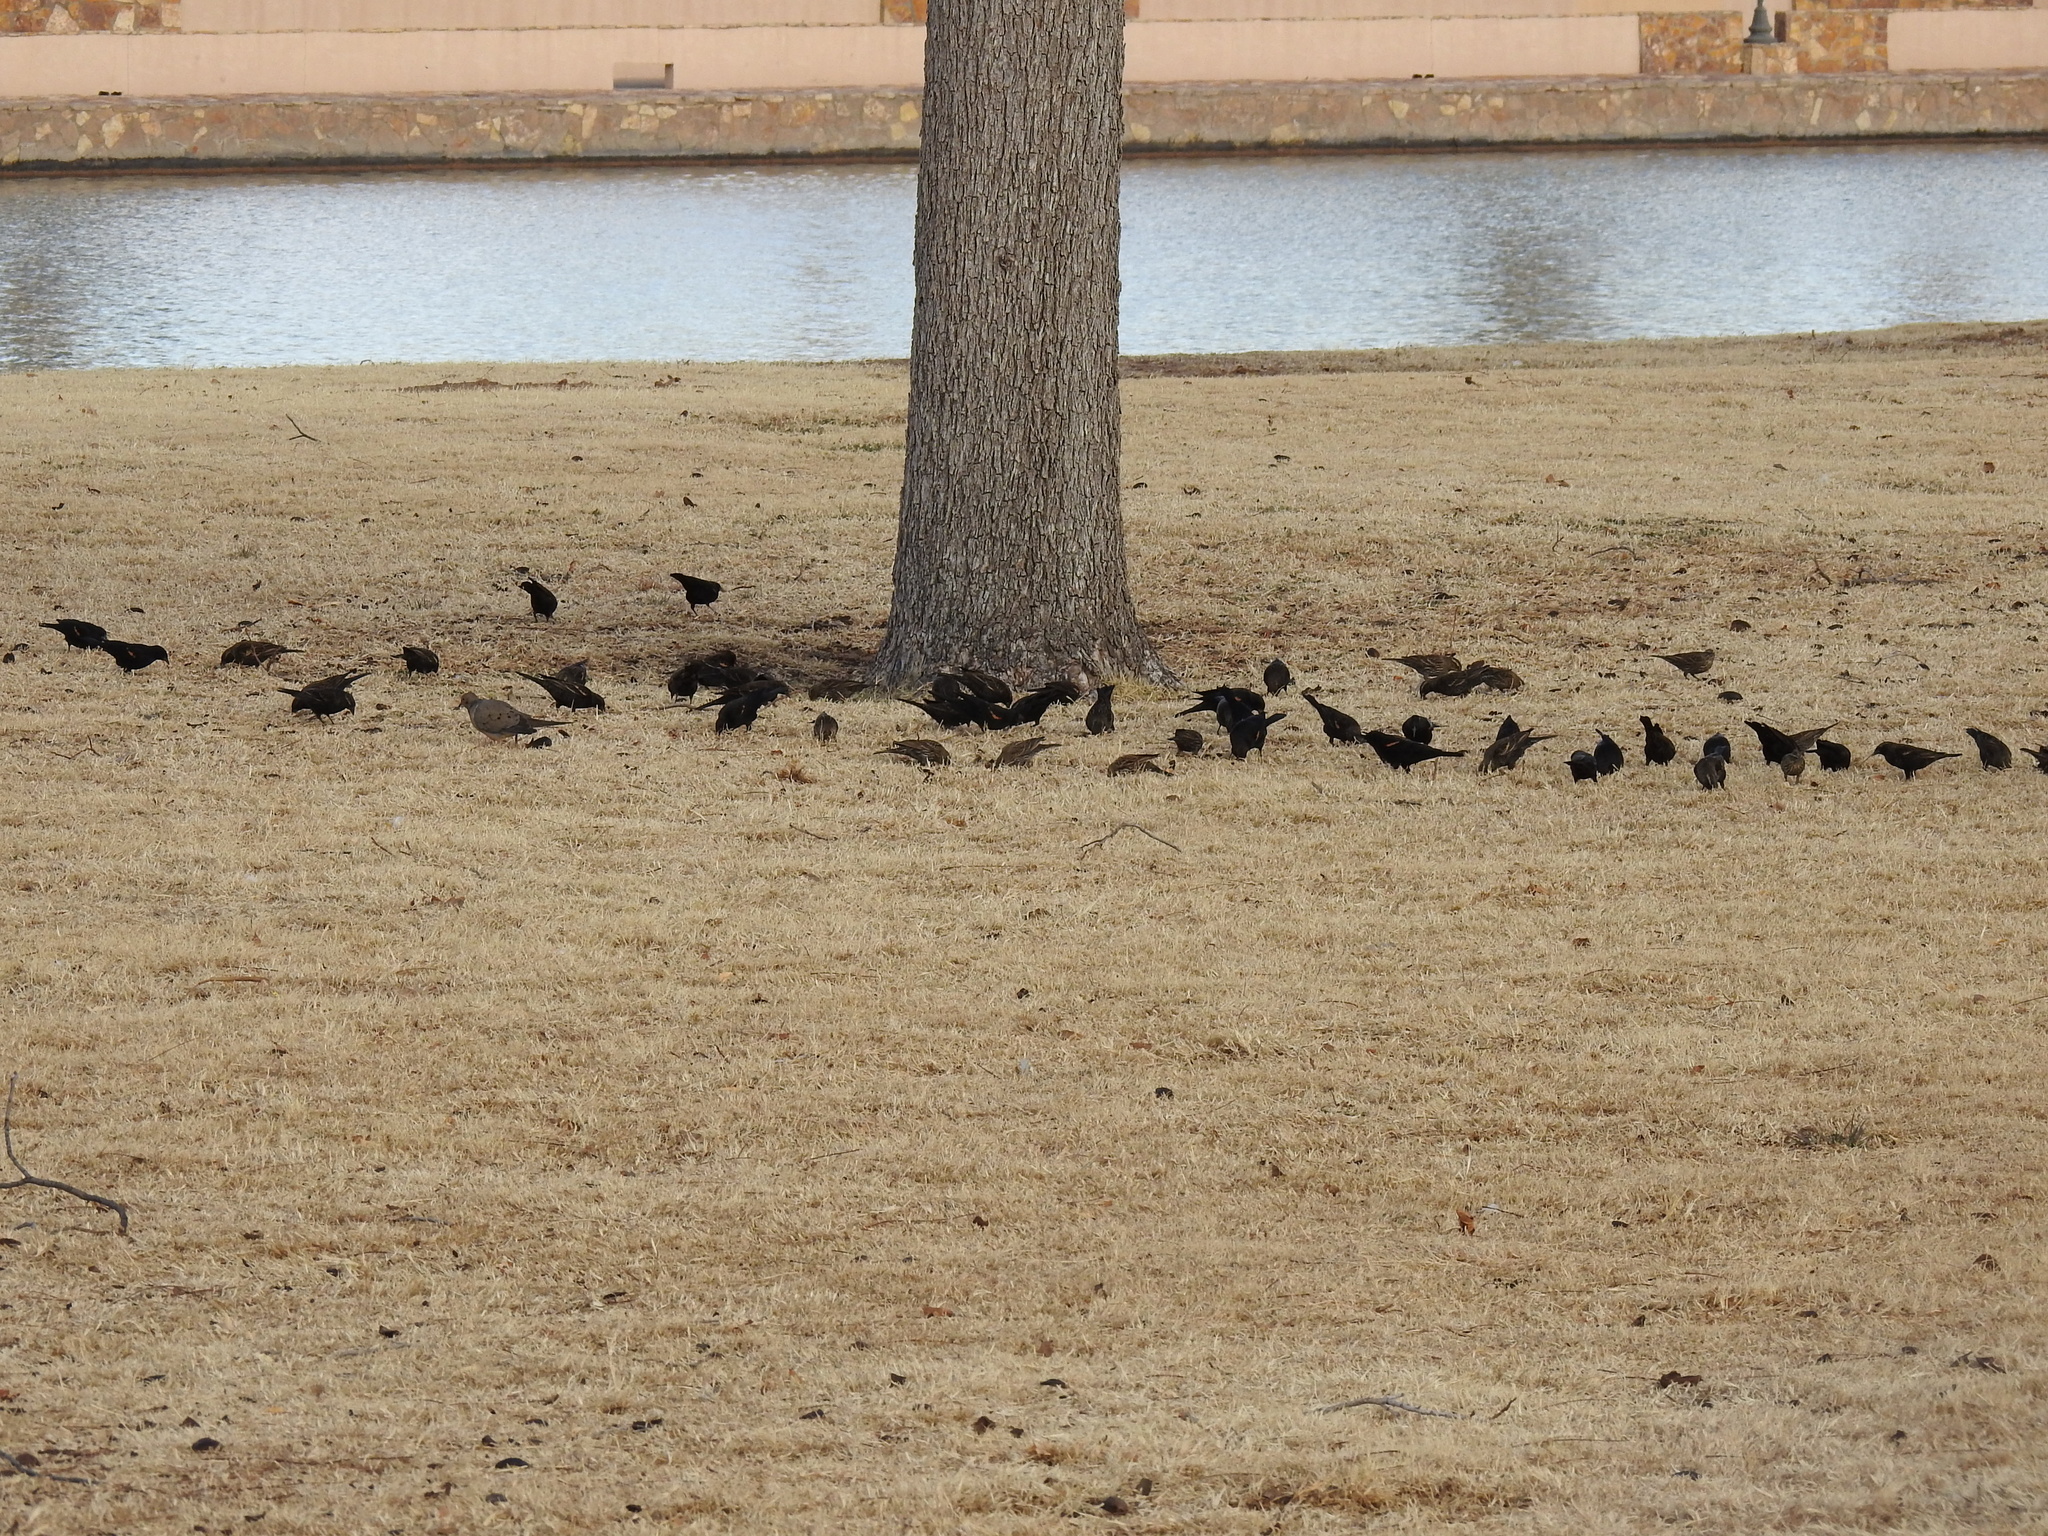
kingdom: Animalia
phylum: Chordata
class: Aves
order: Passeriformes
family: Icteridae
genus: Agelaius
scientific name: Agelaius phoeniceus
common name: Red-winged blackbird
